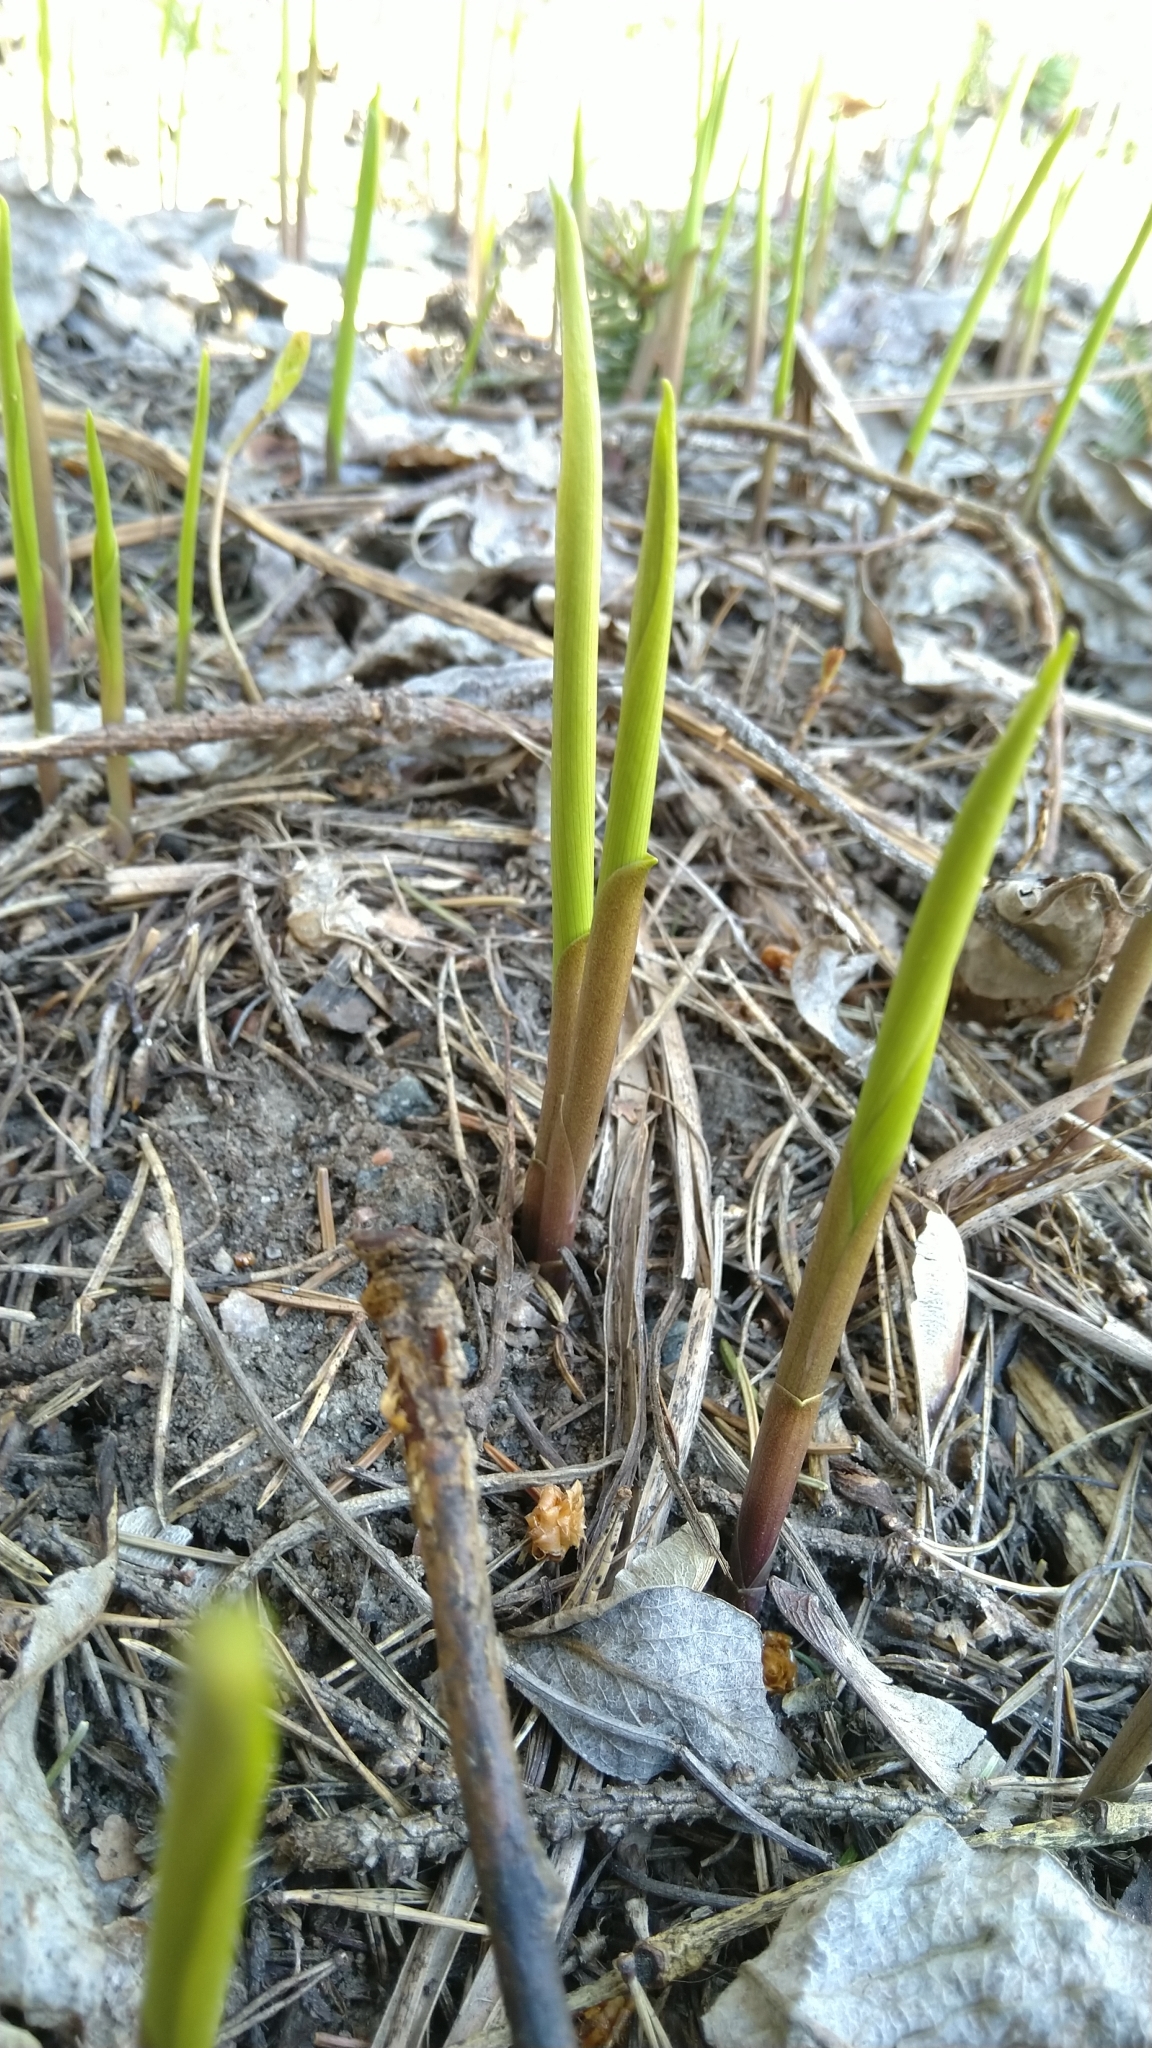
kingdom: Plantae
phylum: Tracheophyta
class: Liliopsida
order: Asparagales
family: Asparagaceae
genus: Convallaria
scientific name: Convallaria majalis
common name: Lily-of-the-valley
